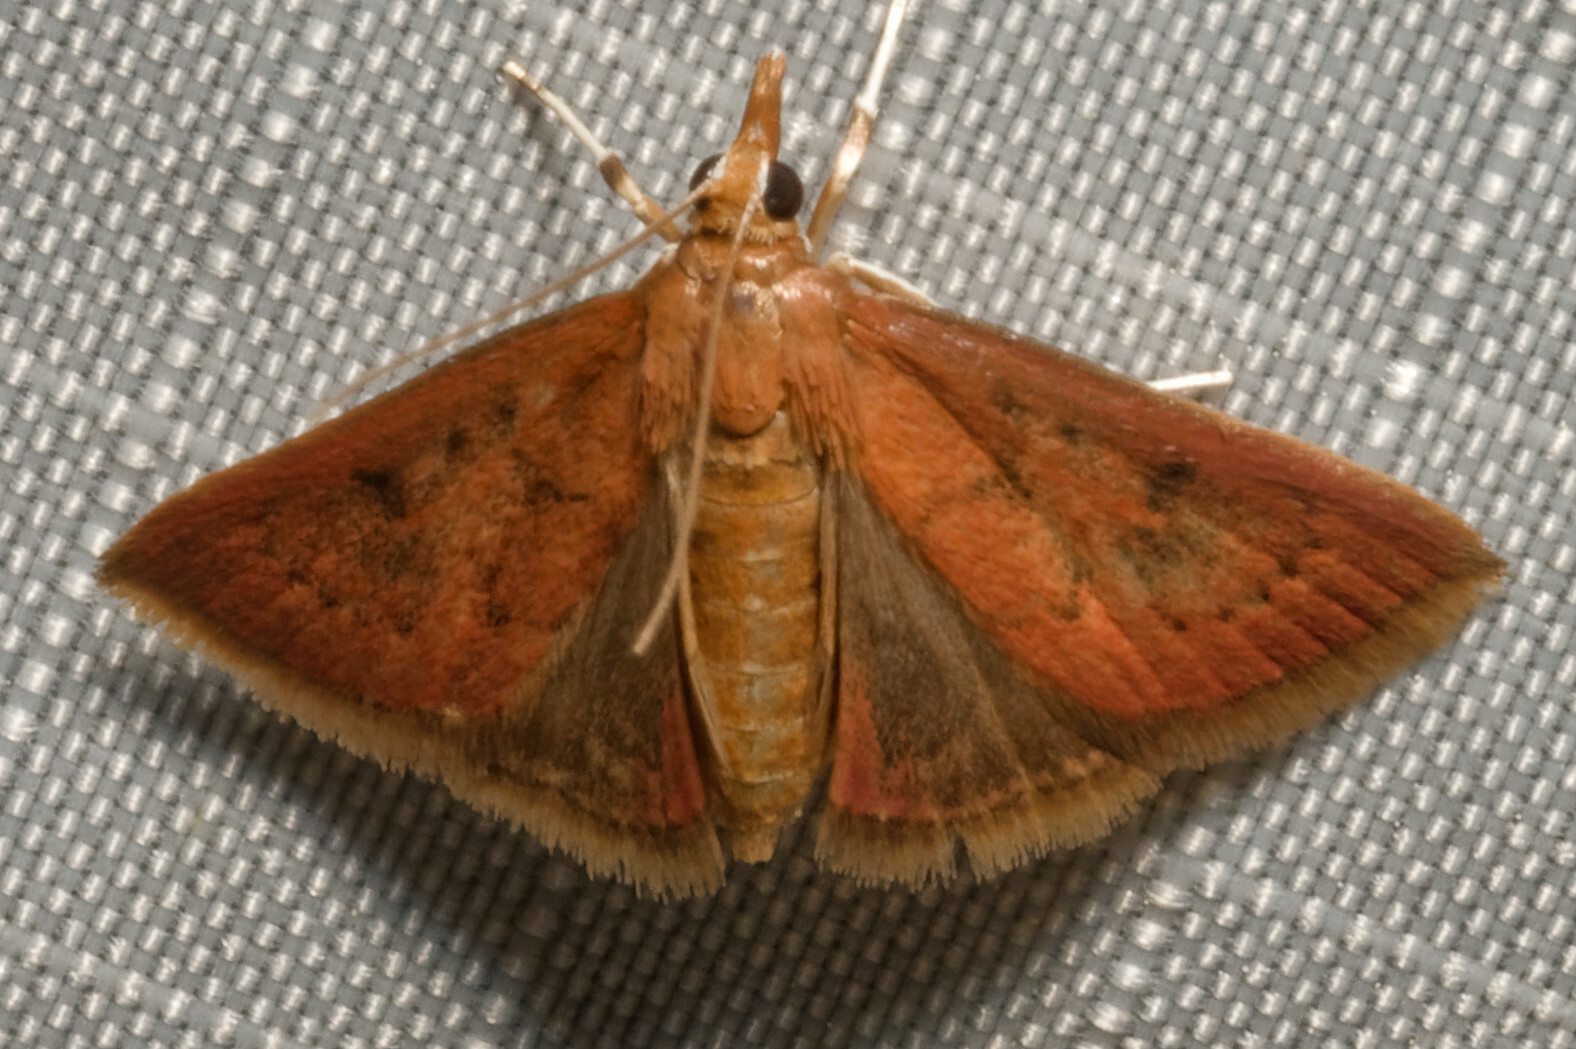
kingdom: Animalia
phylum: Arthropoda
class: Insecta
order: Lepidoptera
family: Crambidae
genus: Oenobotys
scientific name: Oenobotys vinotinctalis
